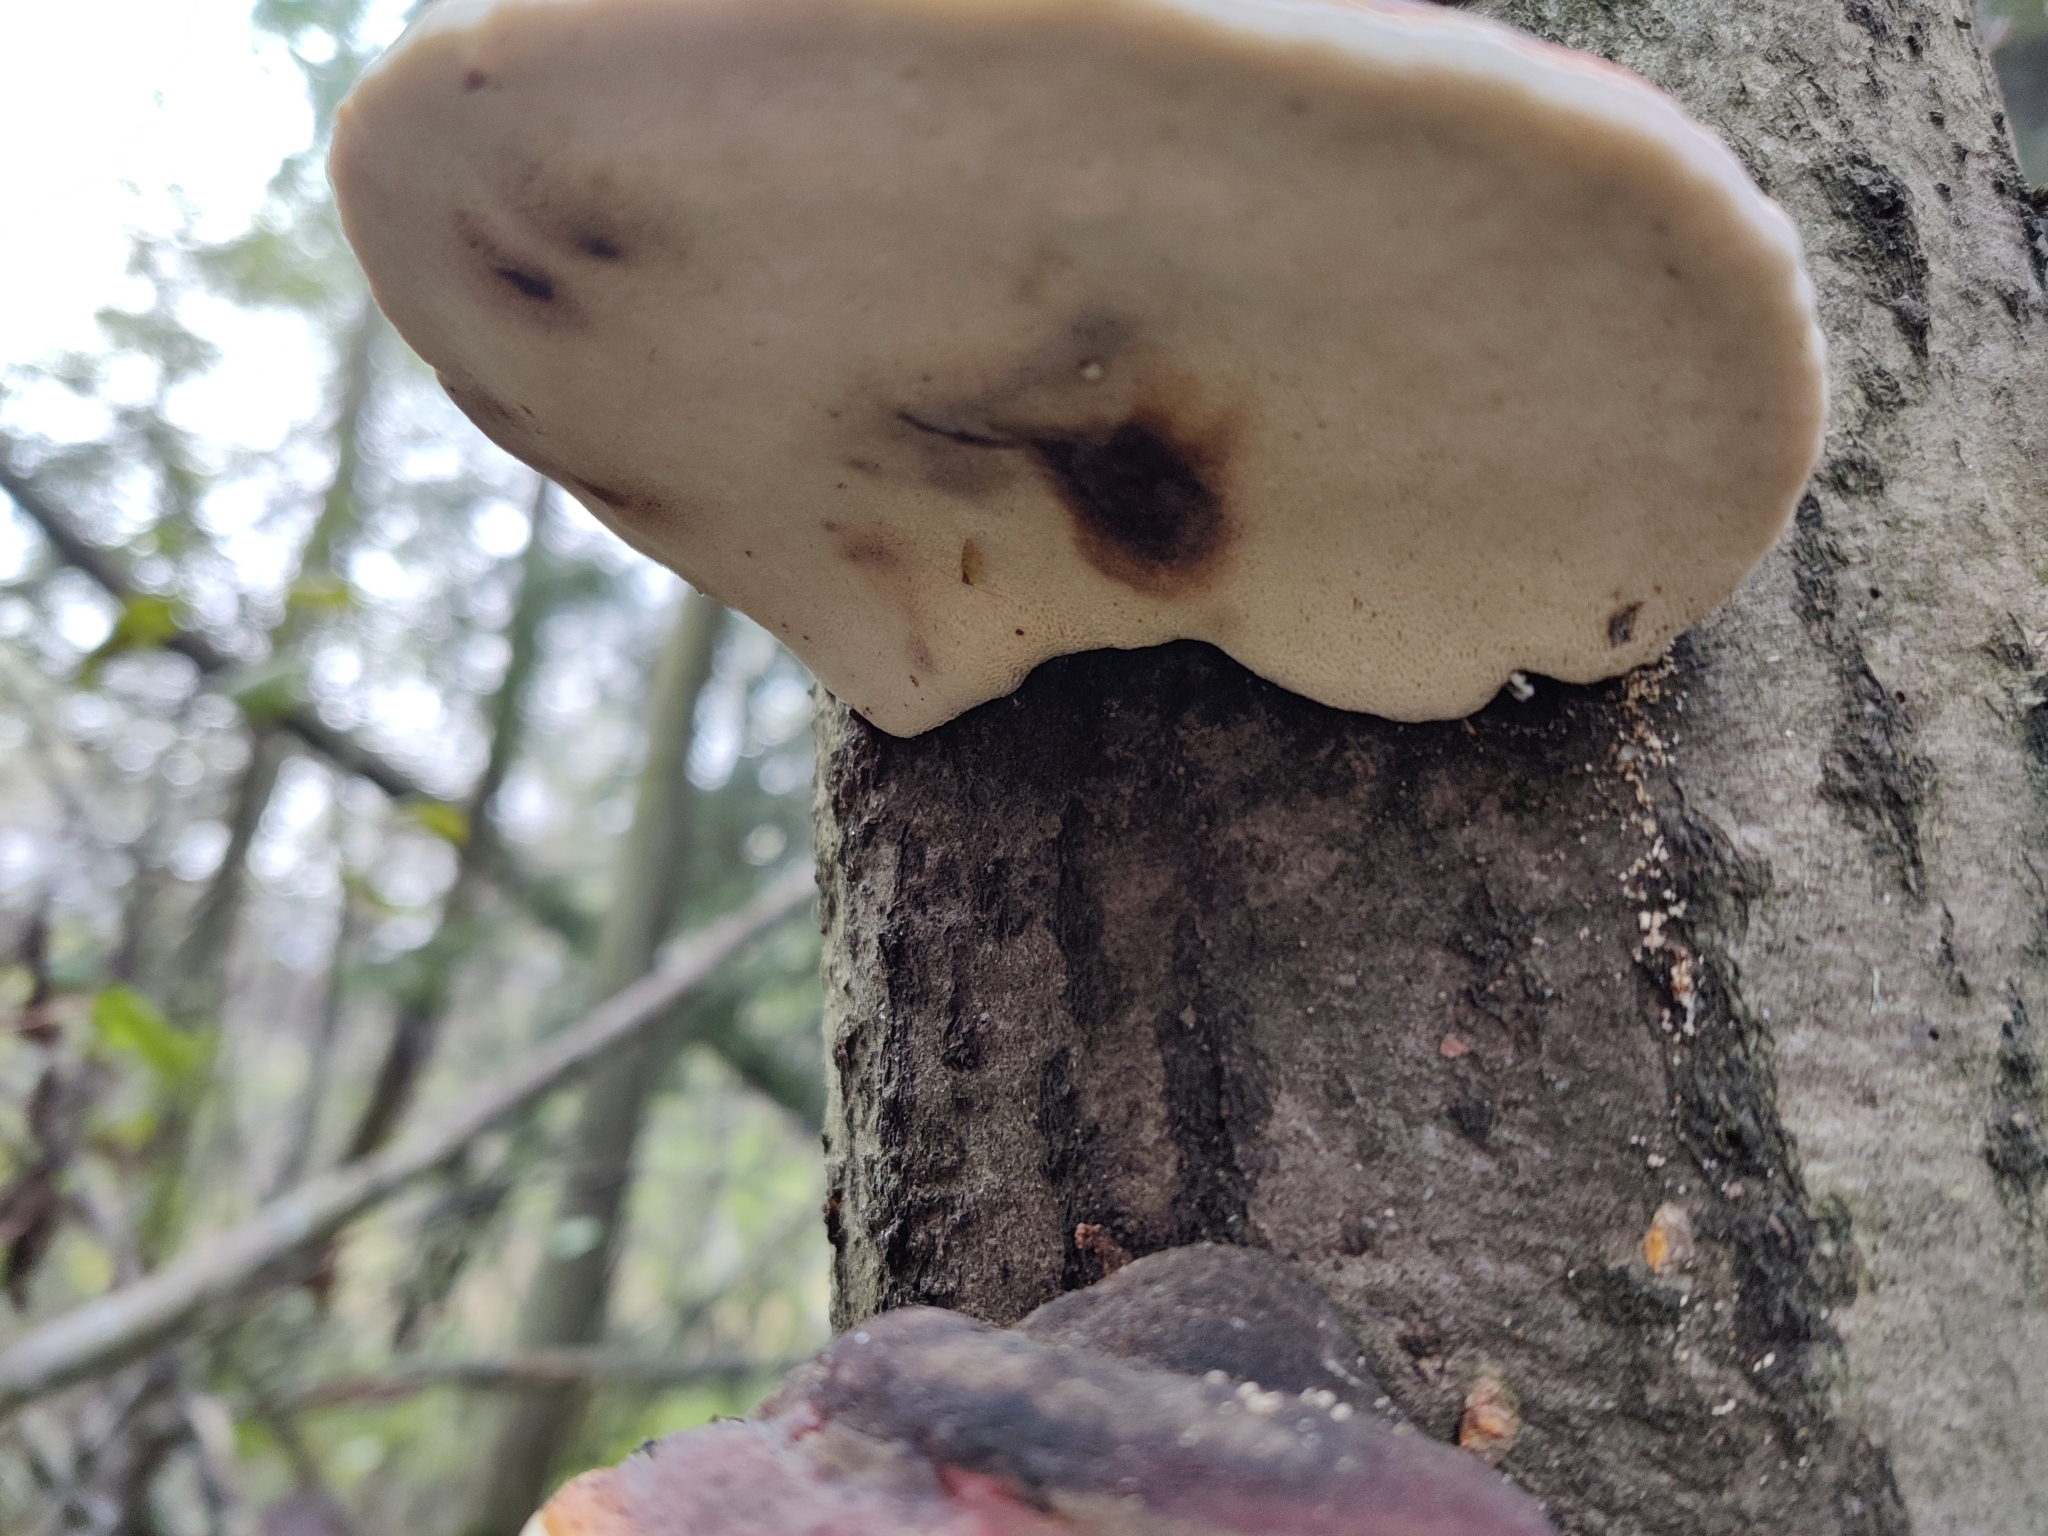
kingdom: Fungi
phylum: Basidiomycota
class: Agaricomycetes
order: Polyporales
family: Fomitopsidaceae
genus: Fomitopsis
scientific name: Fomitopsis pinicola
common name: Red-belted bracket
